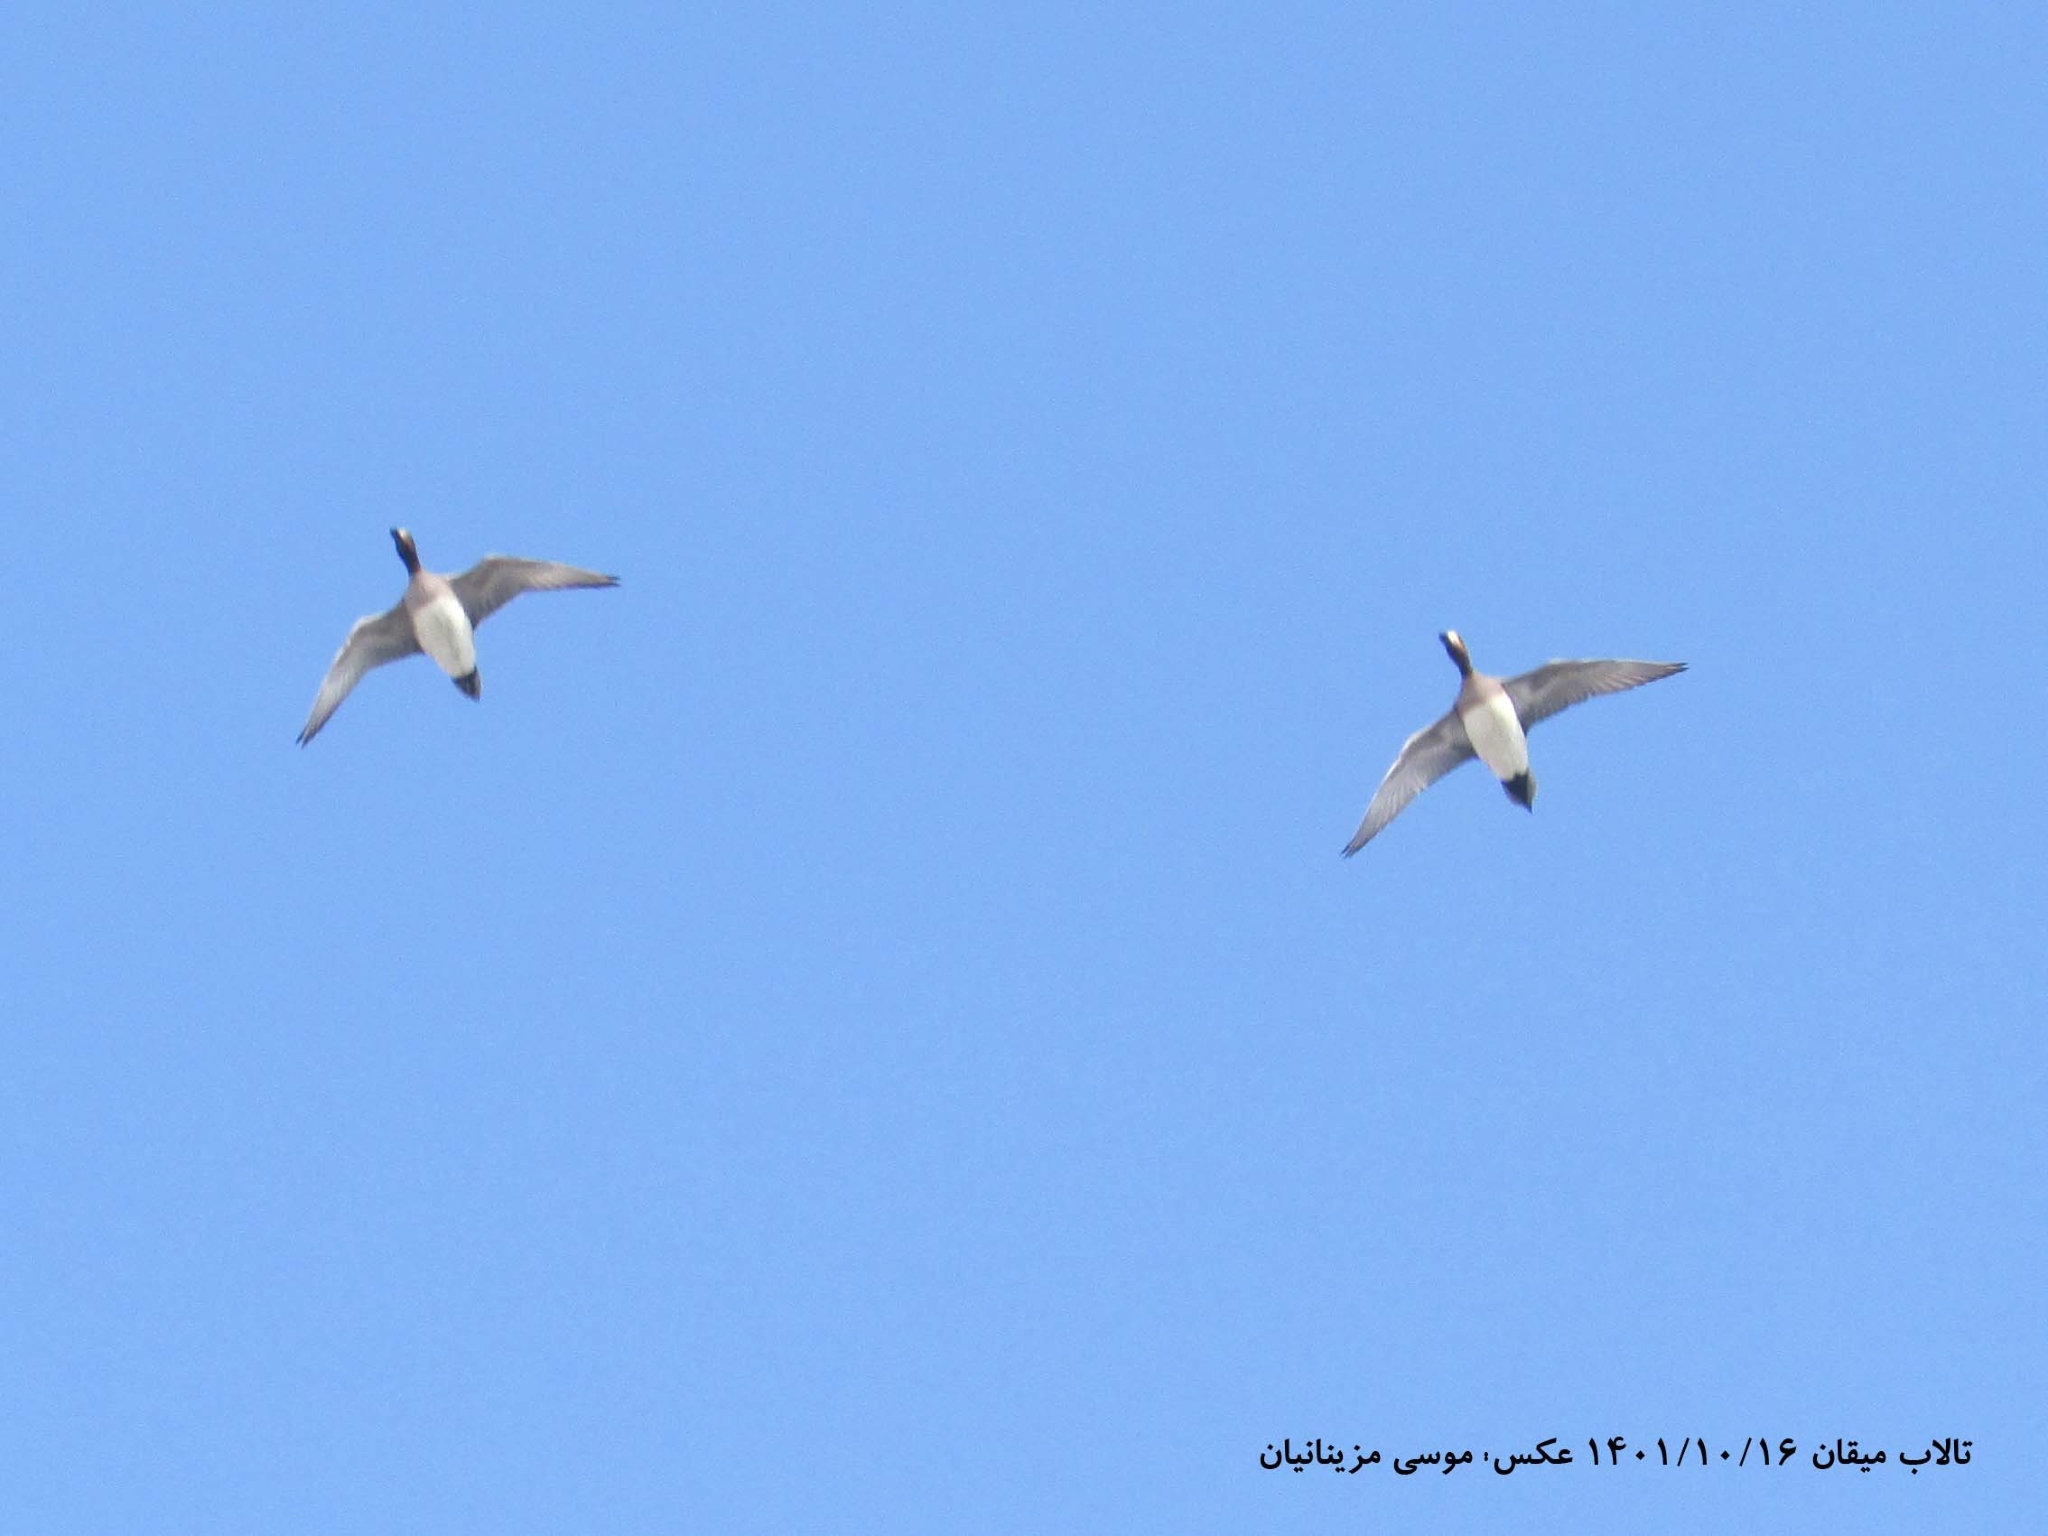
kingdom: Animalia
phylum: Chordata
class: Aves
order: Anseriformes
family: Anatidae
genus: Mareca
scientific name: Mareca penelope
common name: Eurasian wigeon
